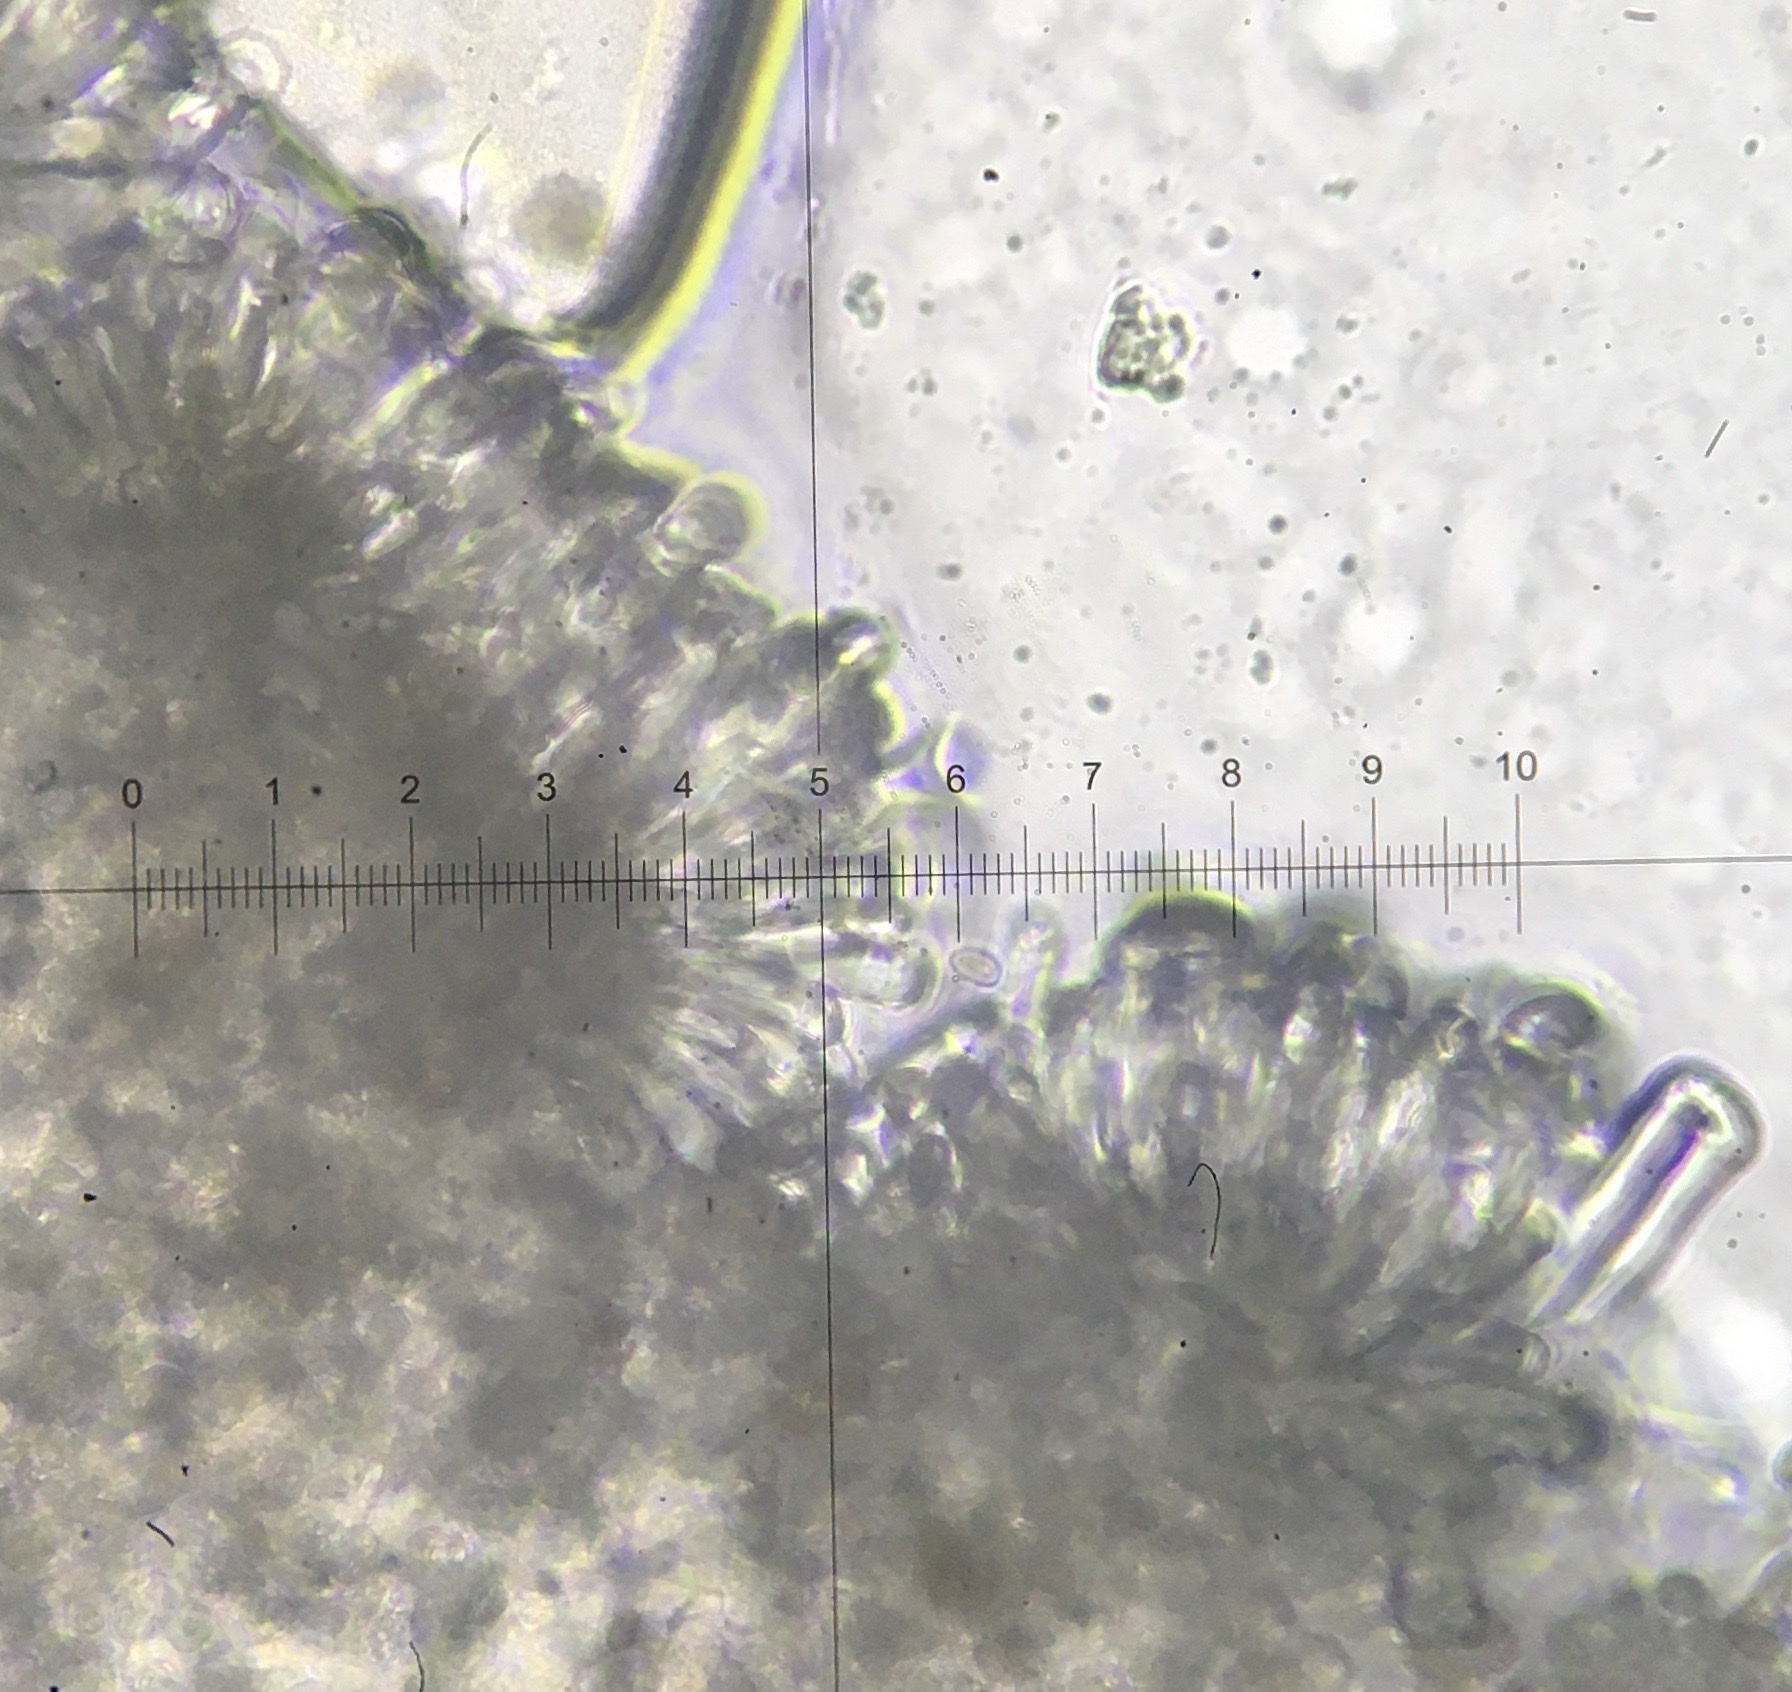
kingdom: Fungi
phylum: Basidiomycota
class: Agaricomycetes
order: Agaricales
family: Inocybaceae
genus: Pseudosperma
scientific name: Pseudosperma friabile
